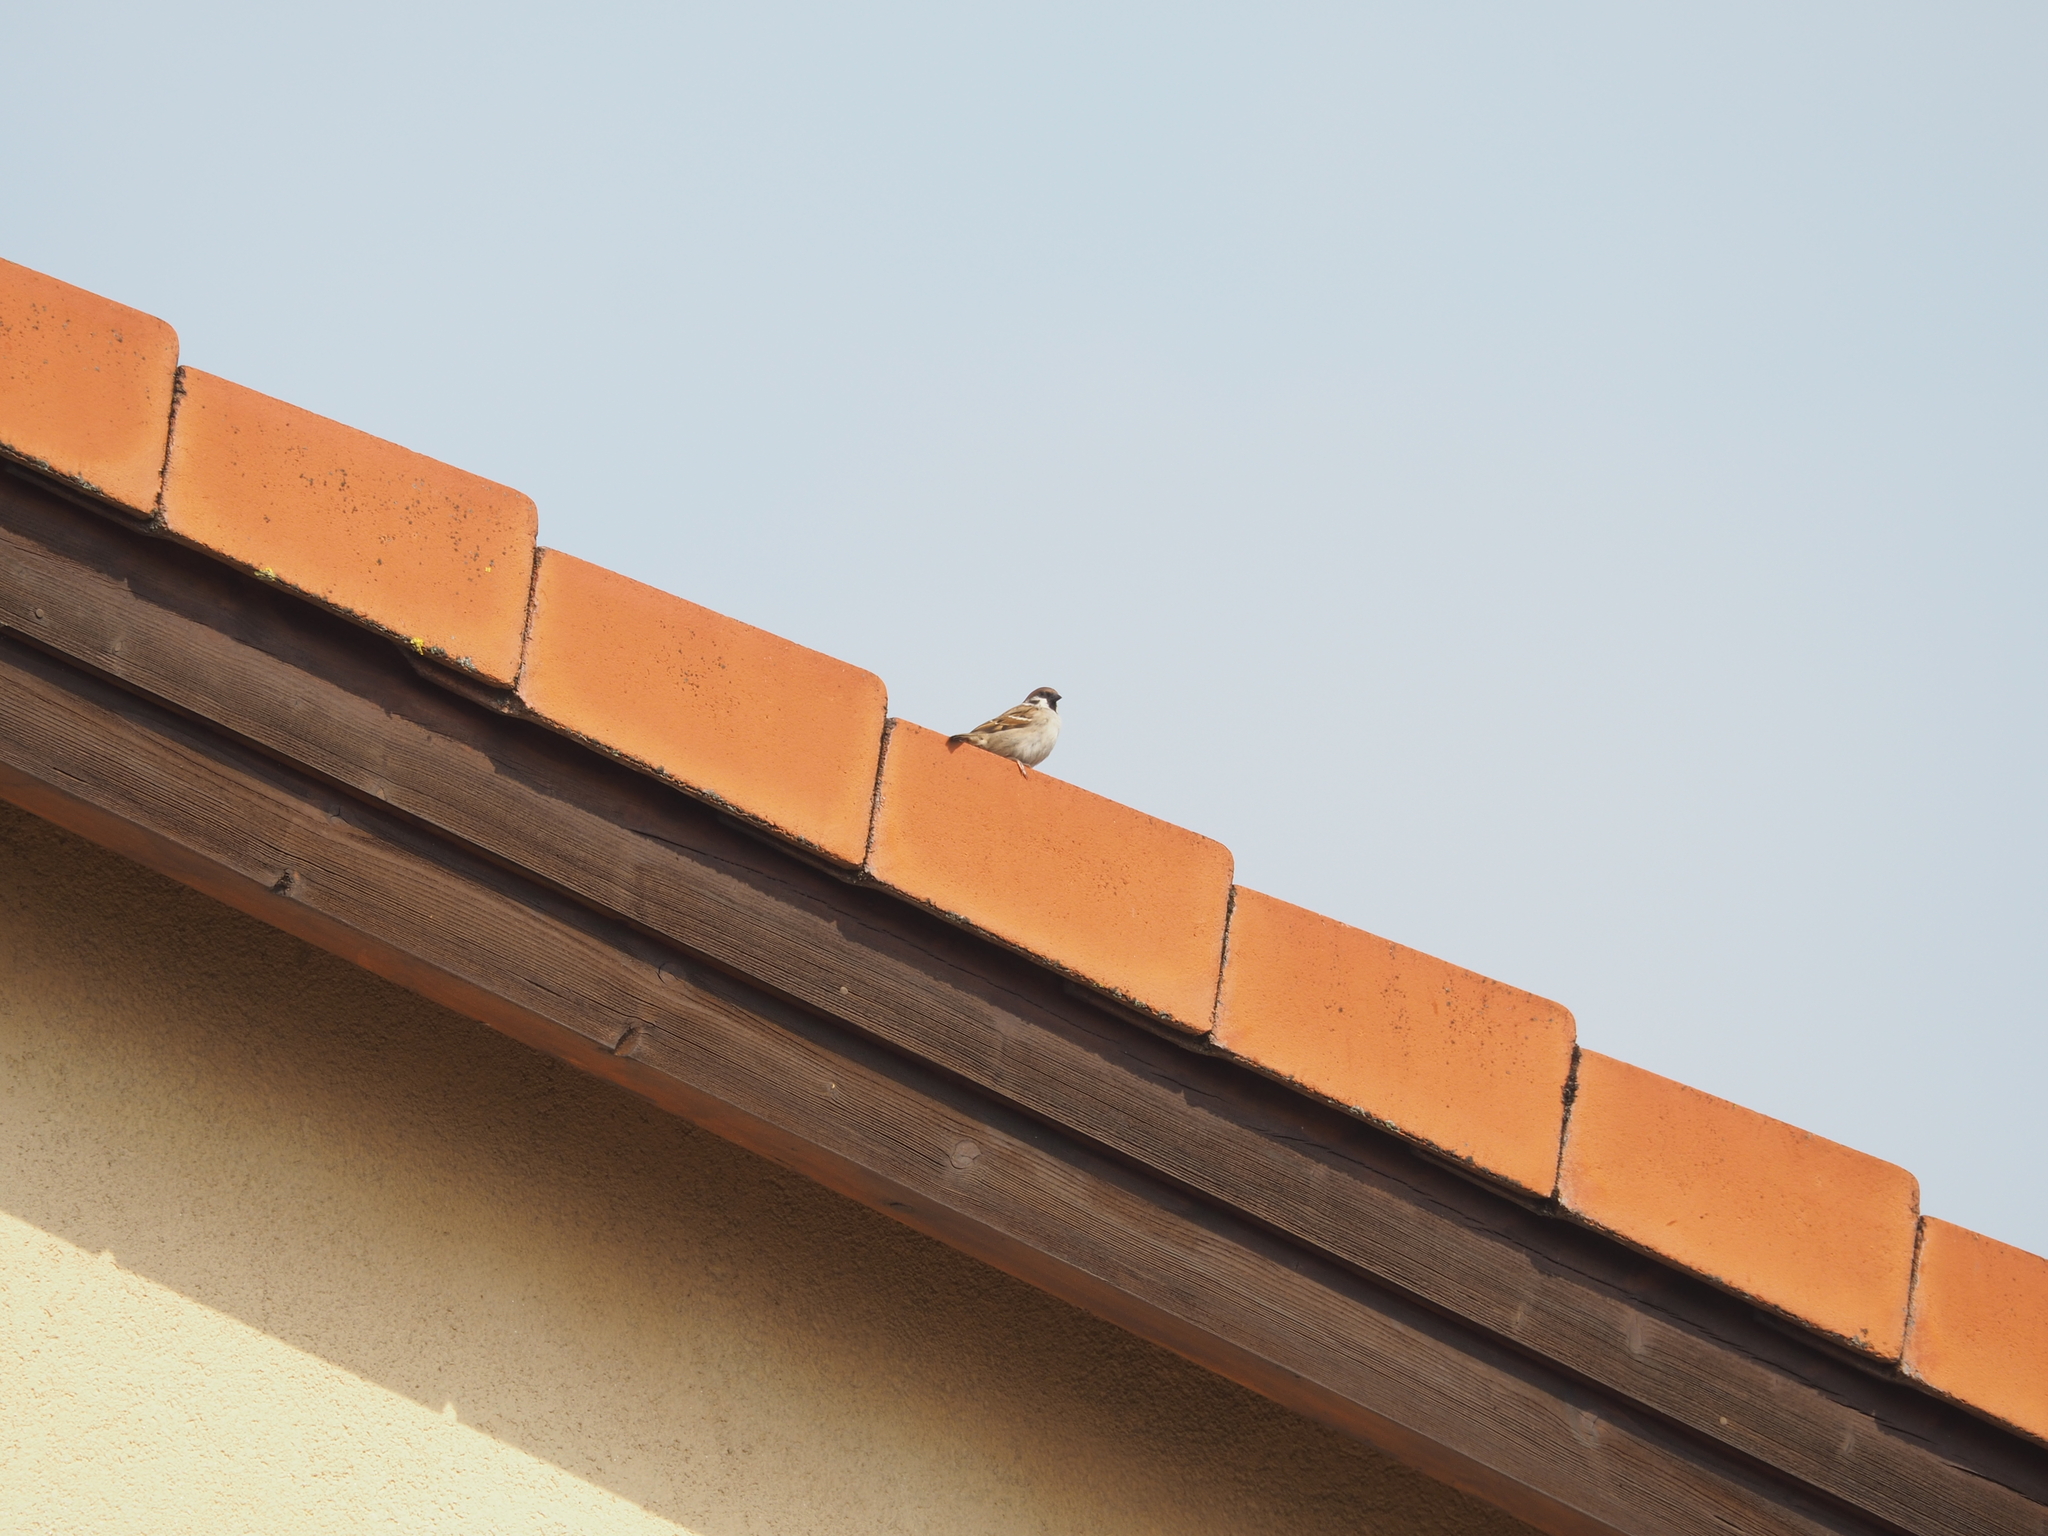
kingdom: Animalia
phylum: Chordata
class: Aves
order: Passeriformes
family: Passeridae
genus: Passer
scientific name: Passer montanus
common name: Eurasian tree sparrow
